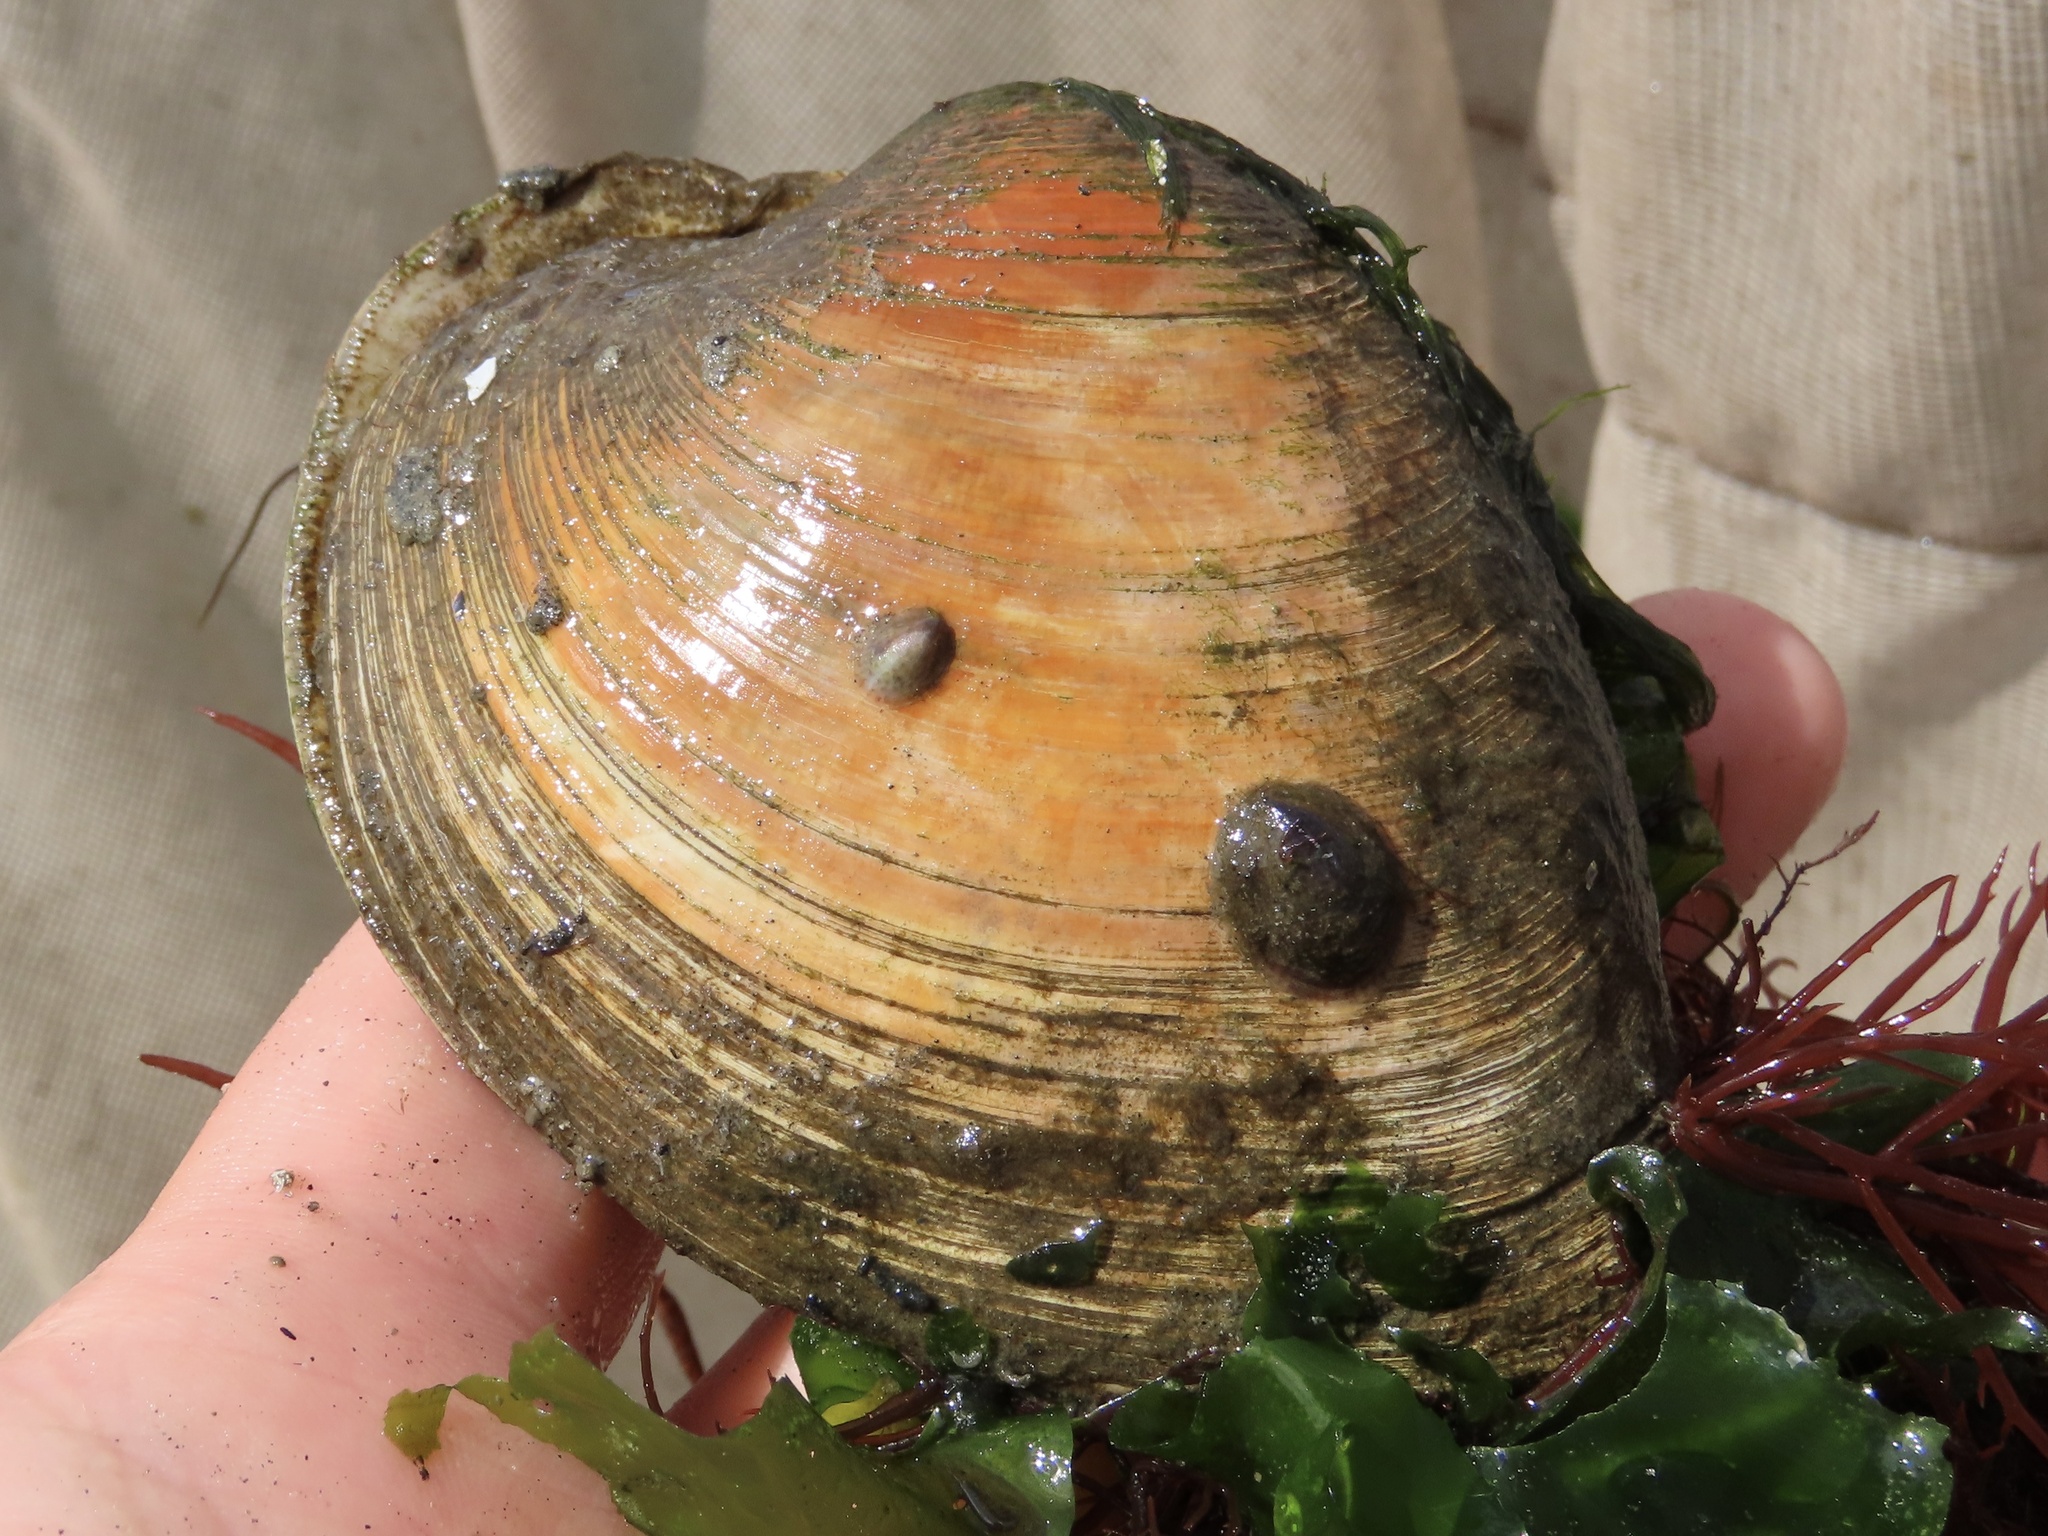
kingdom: Animalia
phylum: Mollusca
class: Bivalvia
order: Venerida
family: Veneridae
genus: Mercenaria
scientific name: Mercenaria mercenaria
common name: American hard-shelled clam
